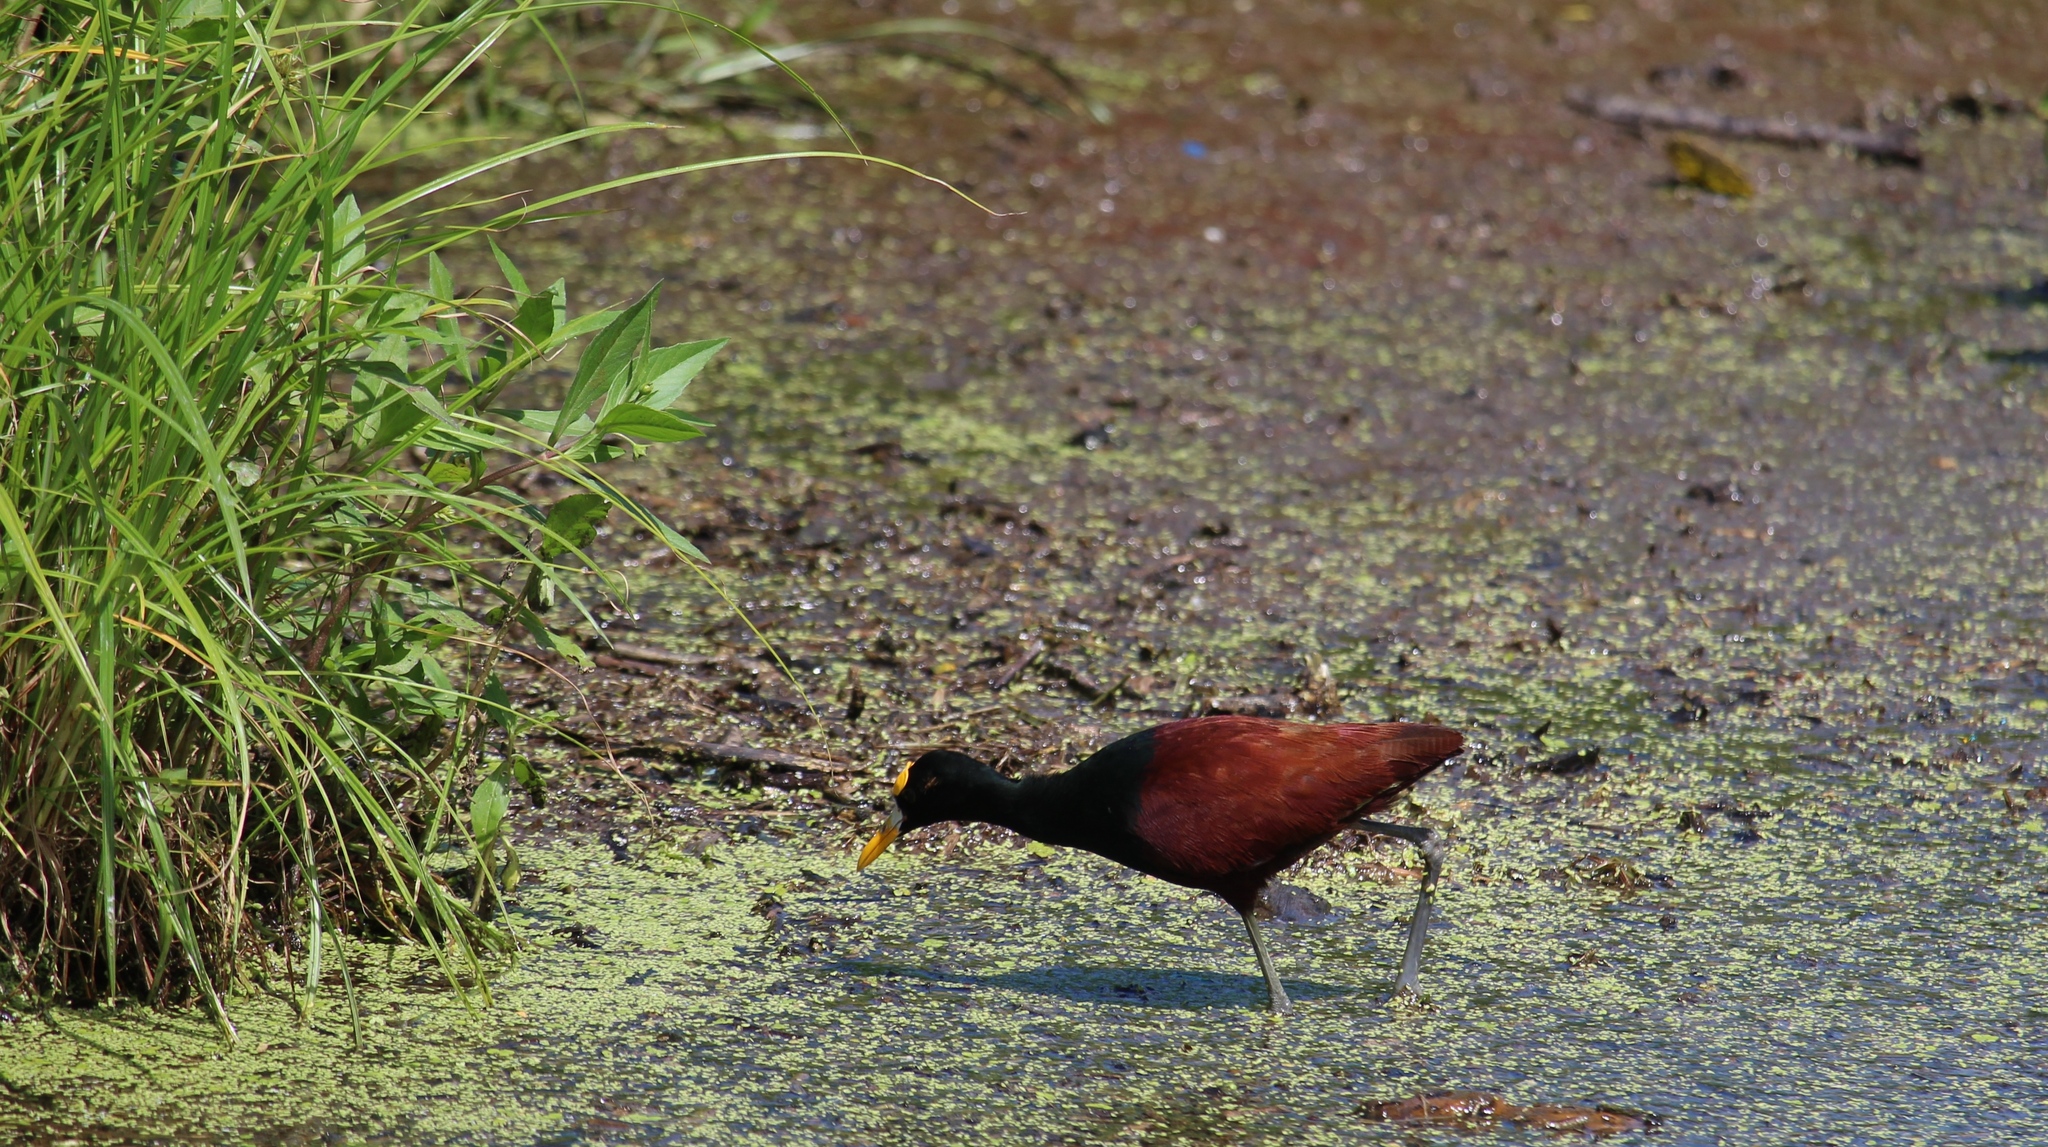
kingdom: Animalia
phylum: Chordata
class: Aves
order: Charadriiformes
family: Jacanidae
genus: Jacana
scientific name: Jacana spinosa
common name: Northern jacana
